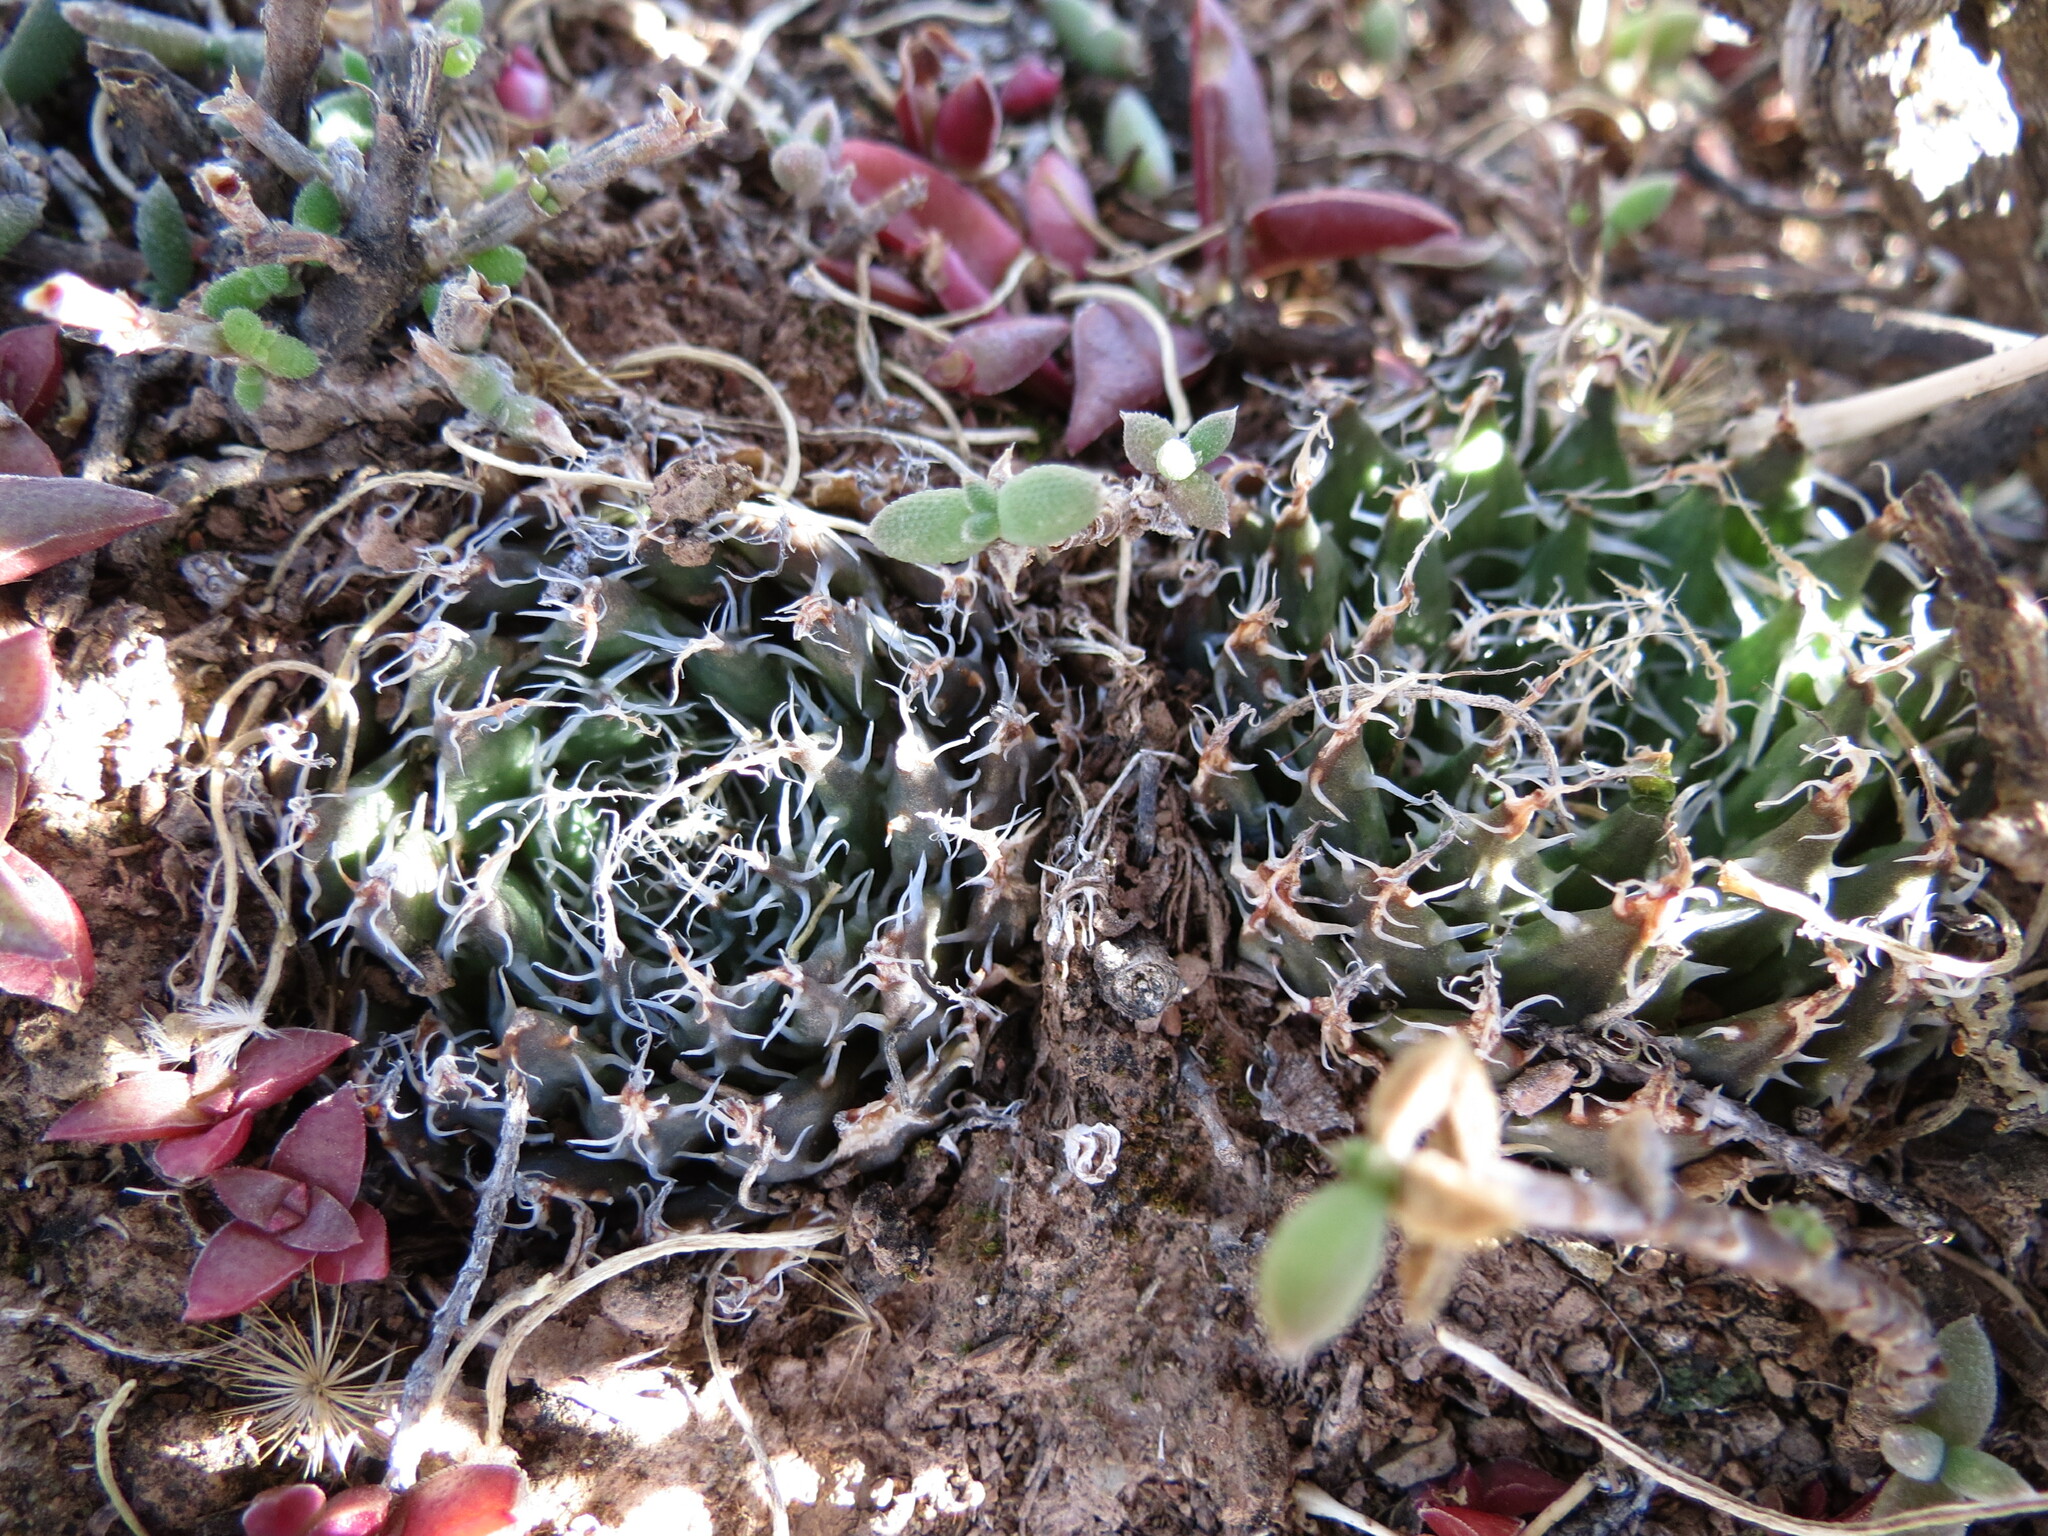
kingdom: Plantae
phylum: Tracheophyta
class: Liliopsida
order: Asparagales
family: Asphodelaceae
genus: Haworthia
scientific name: Haworthia arachnoidea
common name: Cobweb-aloe
